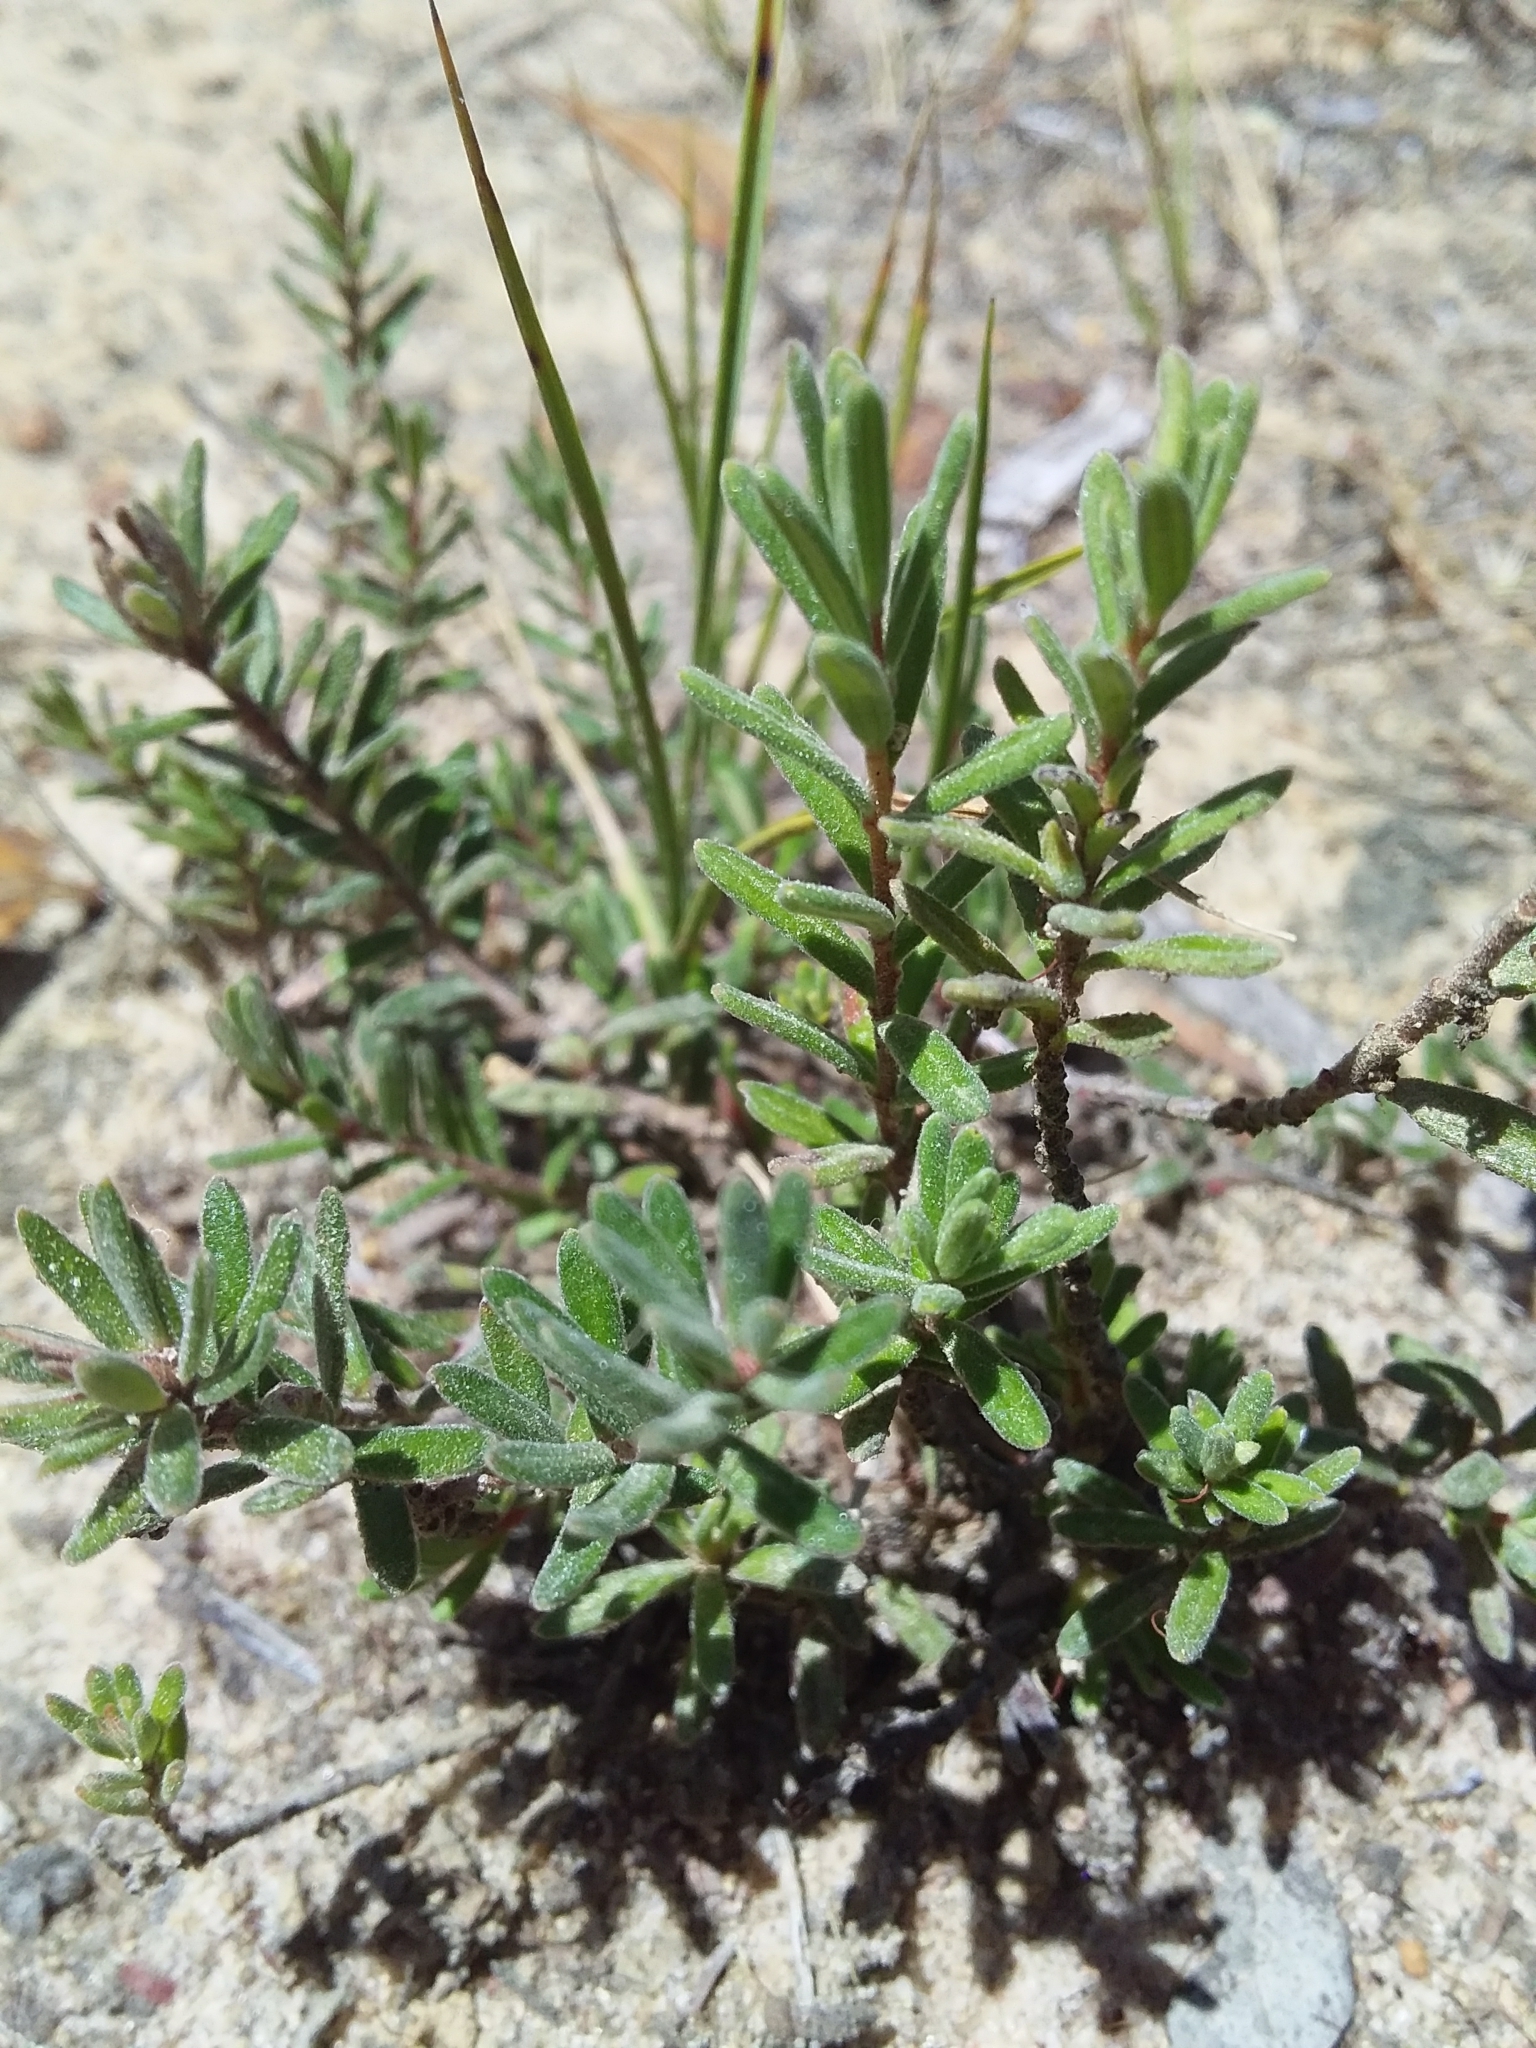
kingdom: Plantae
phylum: Tracheophyta
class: Magnoliopsida
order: Dilleniales
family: Dilleniaceae
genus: Hibbertia
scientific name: Hibbertia crinita
